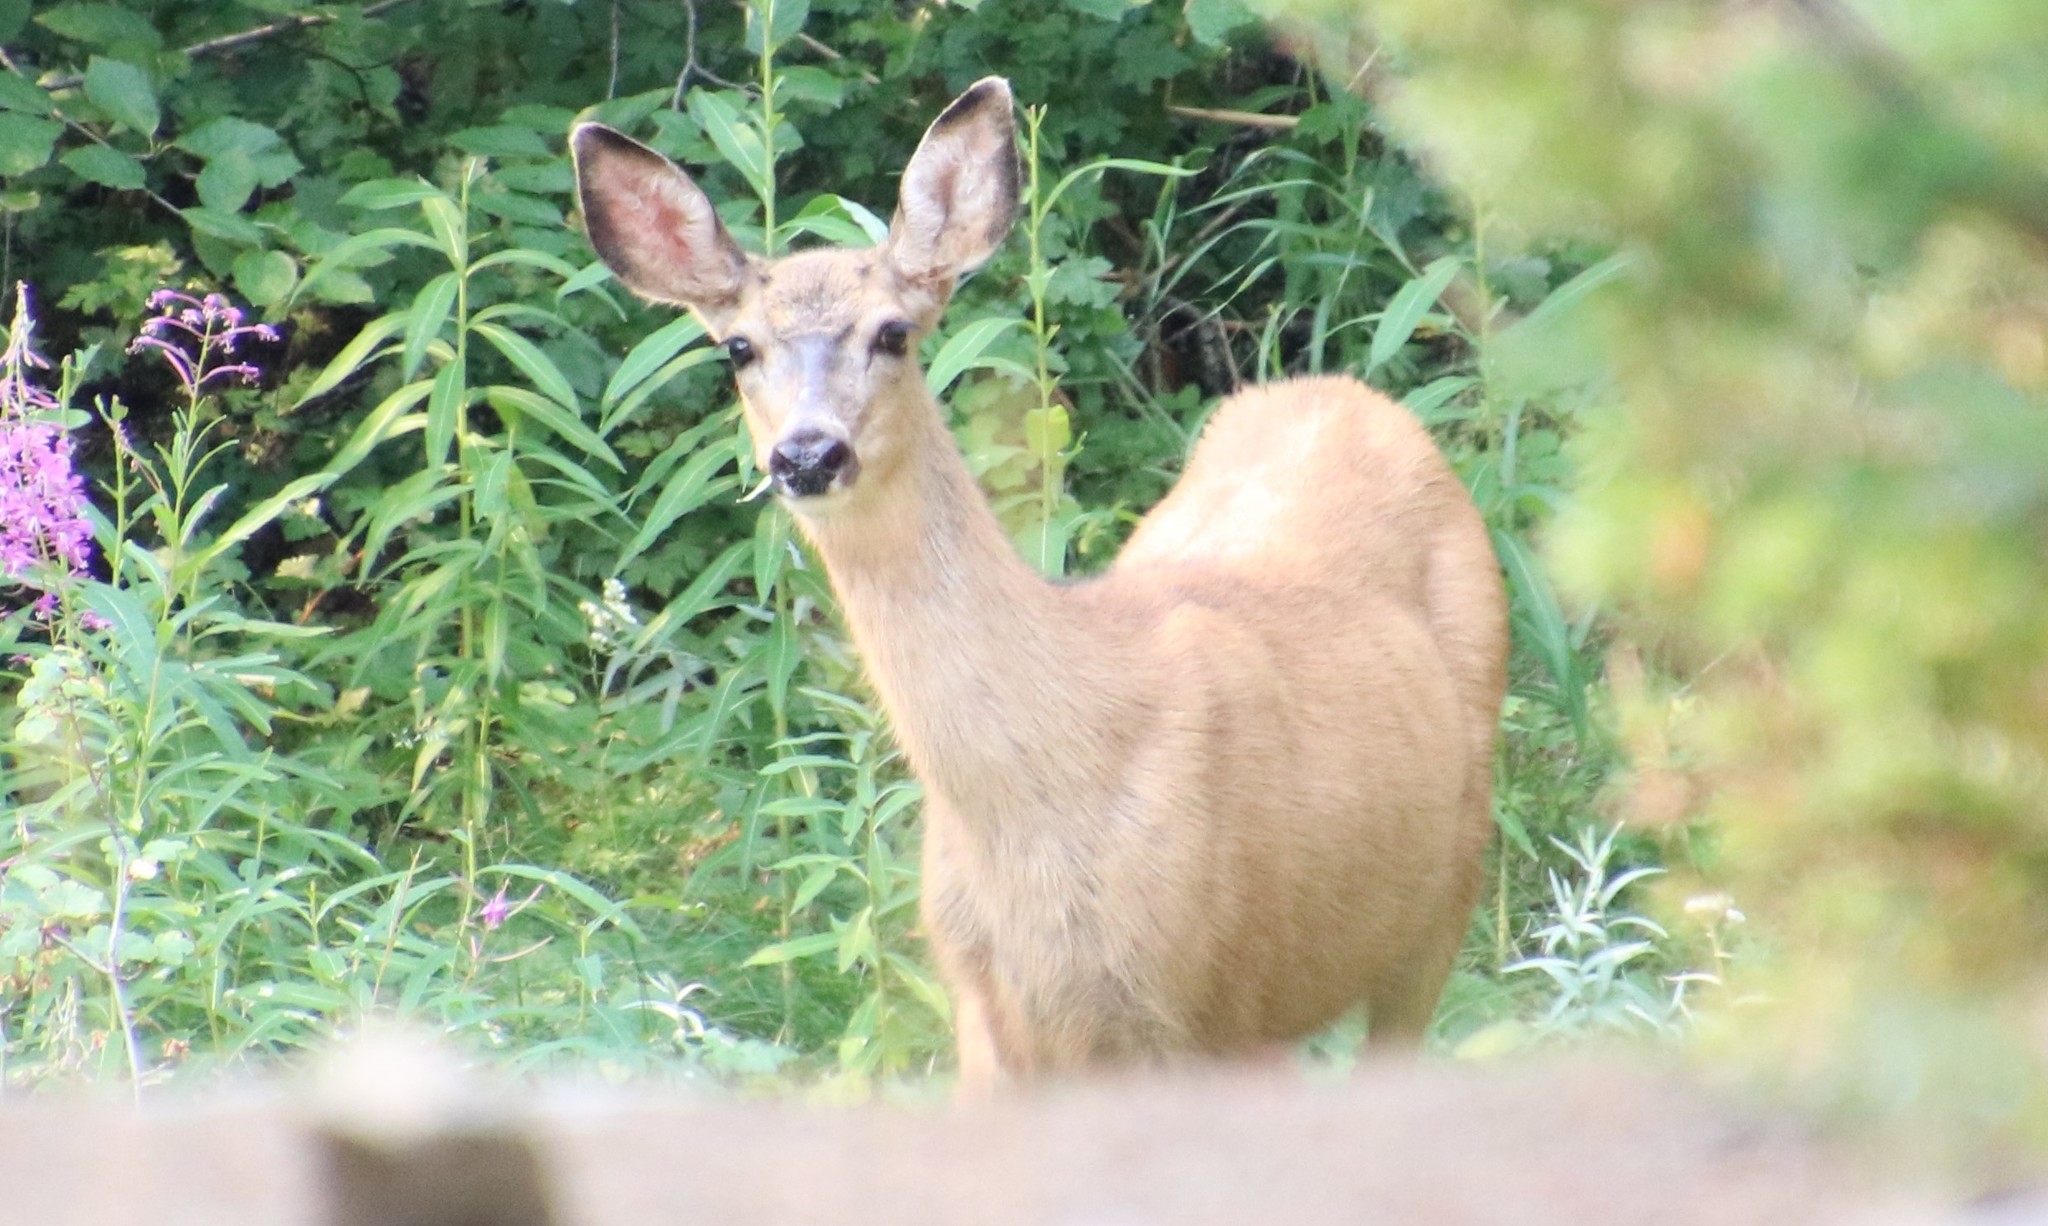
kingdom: Animalia
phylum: Chordata
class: Mammalia
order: Artiodactyla
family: Cervidae
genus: Odocoileus
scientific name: Odocoileus hemionus
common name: Mule deer
